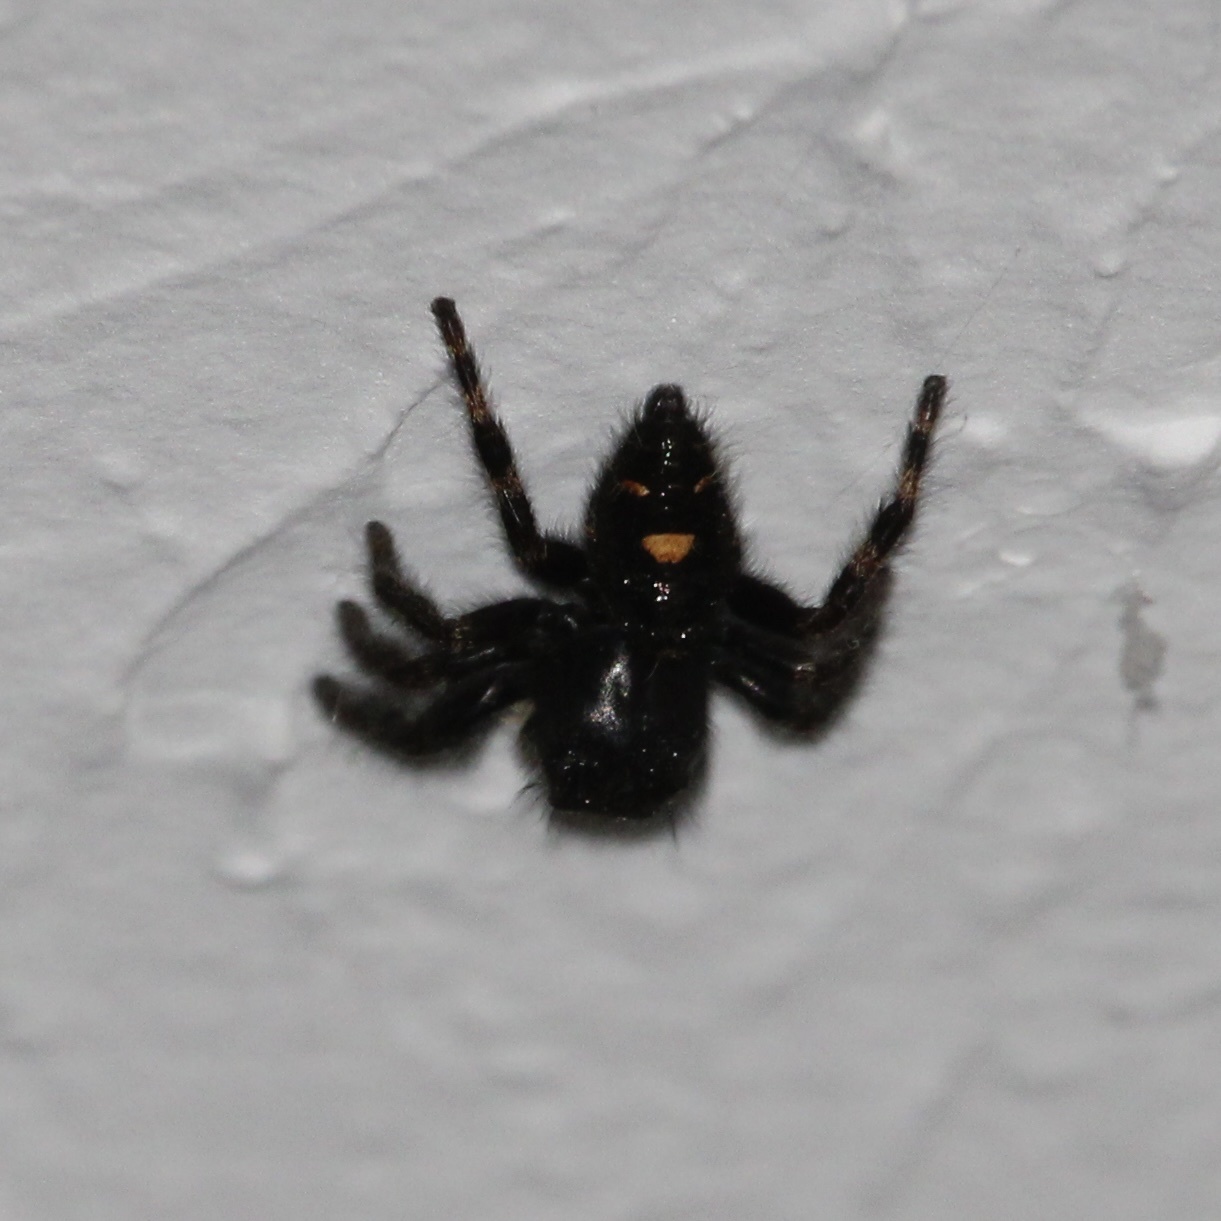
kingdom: Animalia
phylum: Arthropoda
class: Arachnida
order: Araneae
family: Salticidae
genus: Phidippus
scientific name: Phidippus audax
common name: Bold jumper
